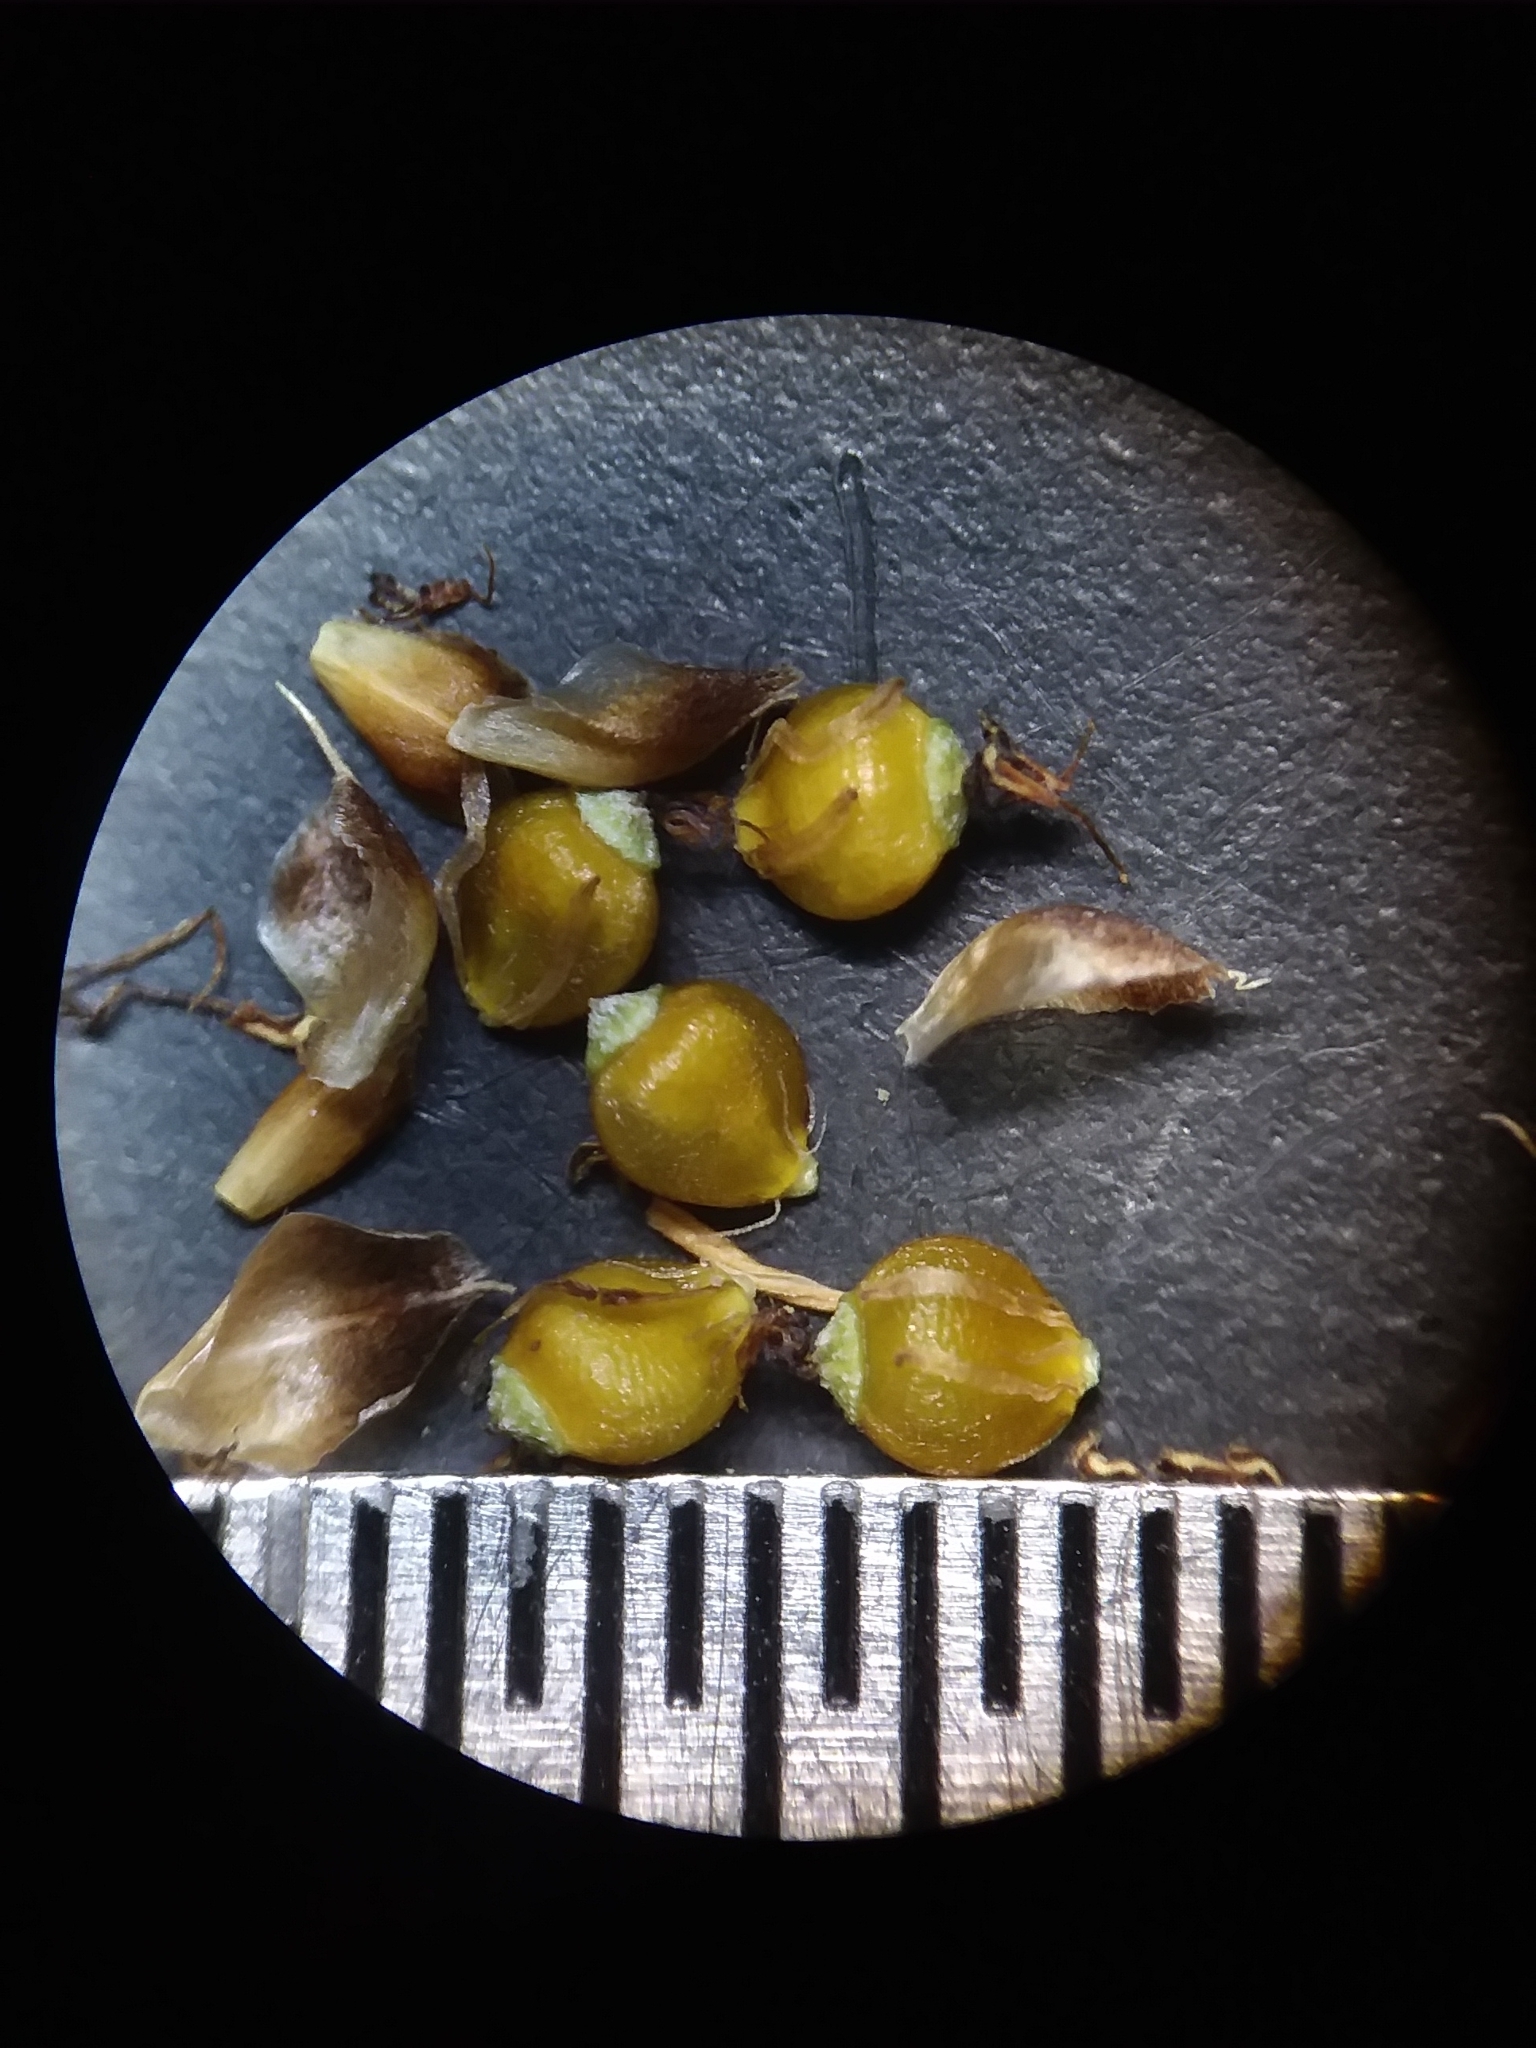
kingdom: Plantae
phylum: Tracheophyta
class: Liliopsida
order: Poales
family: Cyperaceae
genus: Rhynchospora
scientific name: Rhynchospora harveyi
